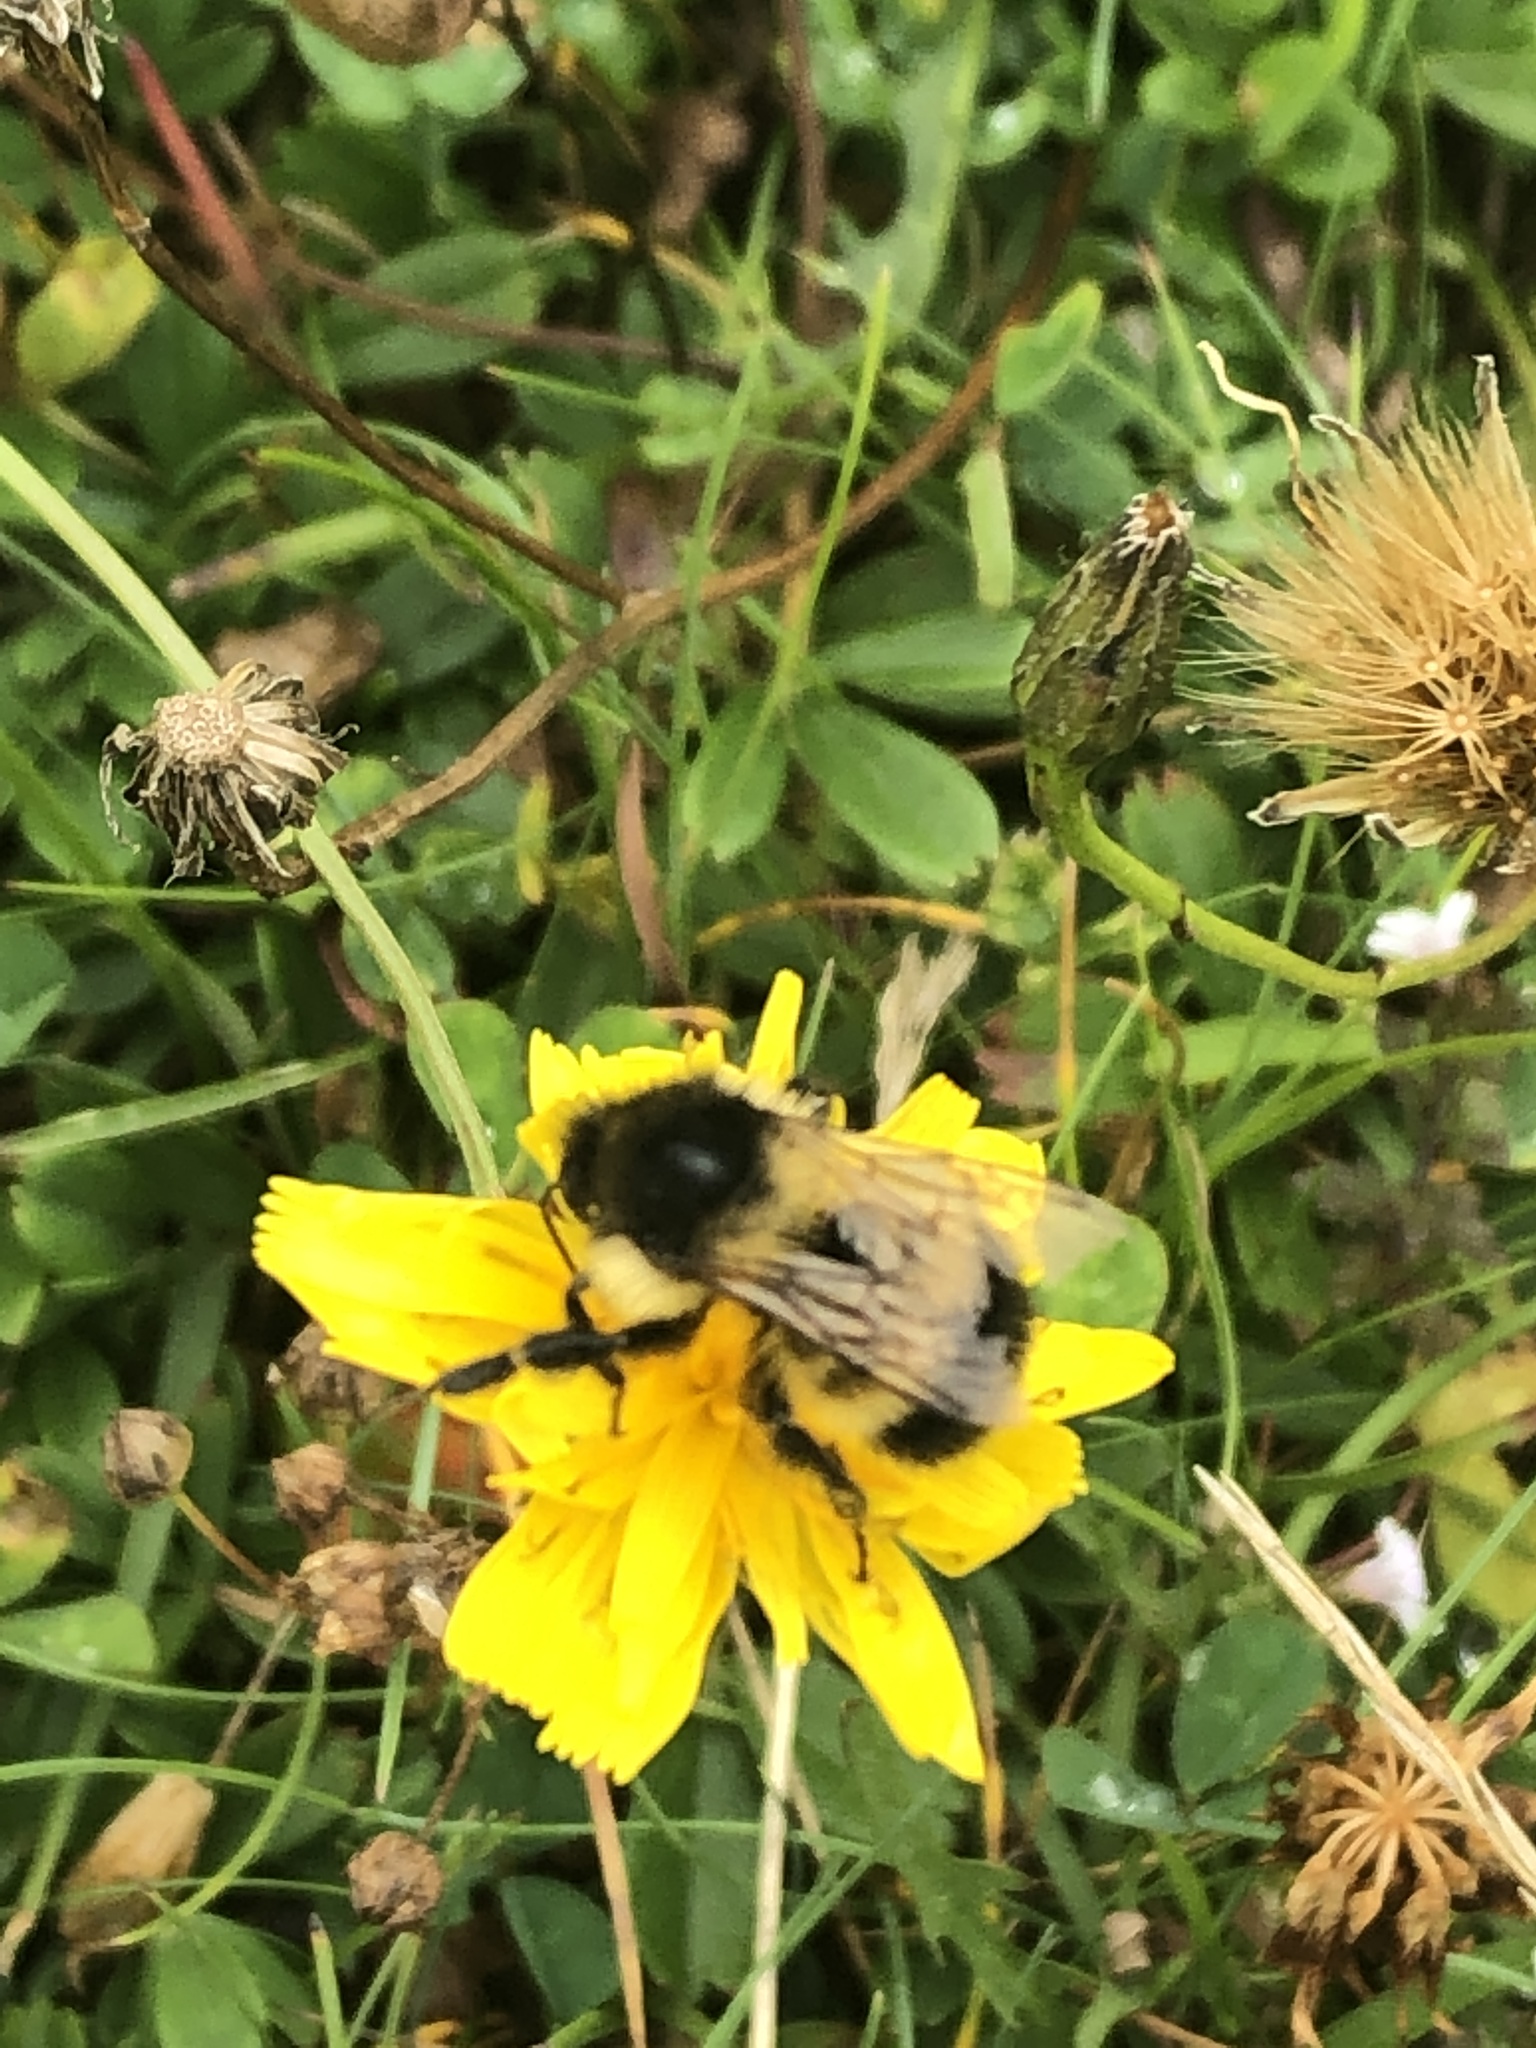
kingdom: Animalia
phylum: Arthropoda
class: Insecta
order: Hymenoptera
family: Apidae
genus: Bombus
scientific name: Bombus vagans
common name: Half-black bumble bee
